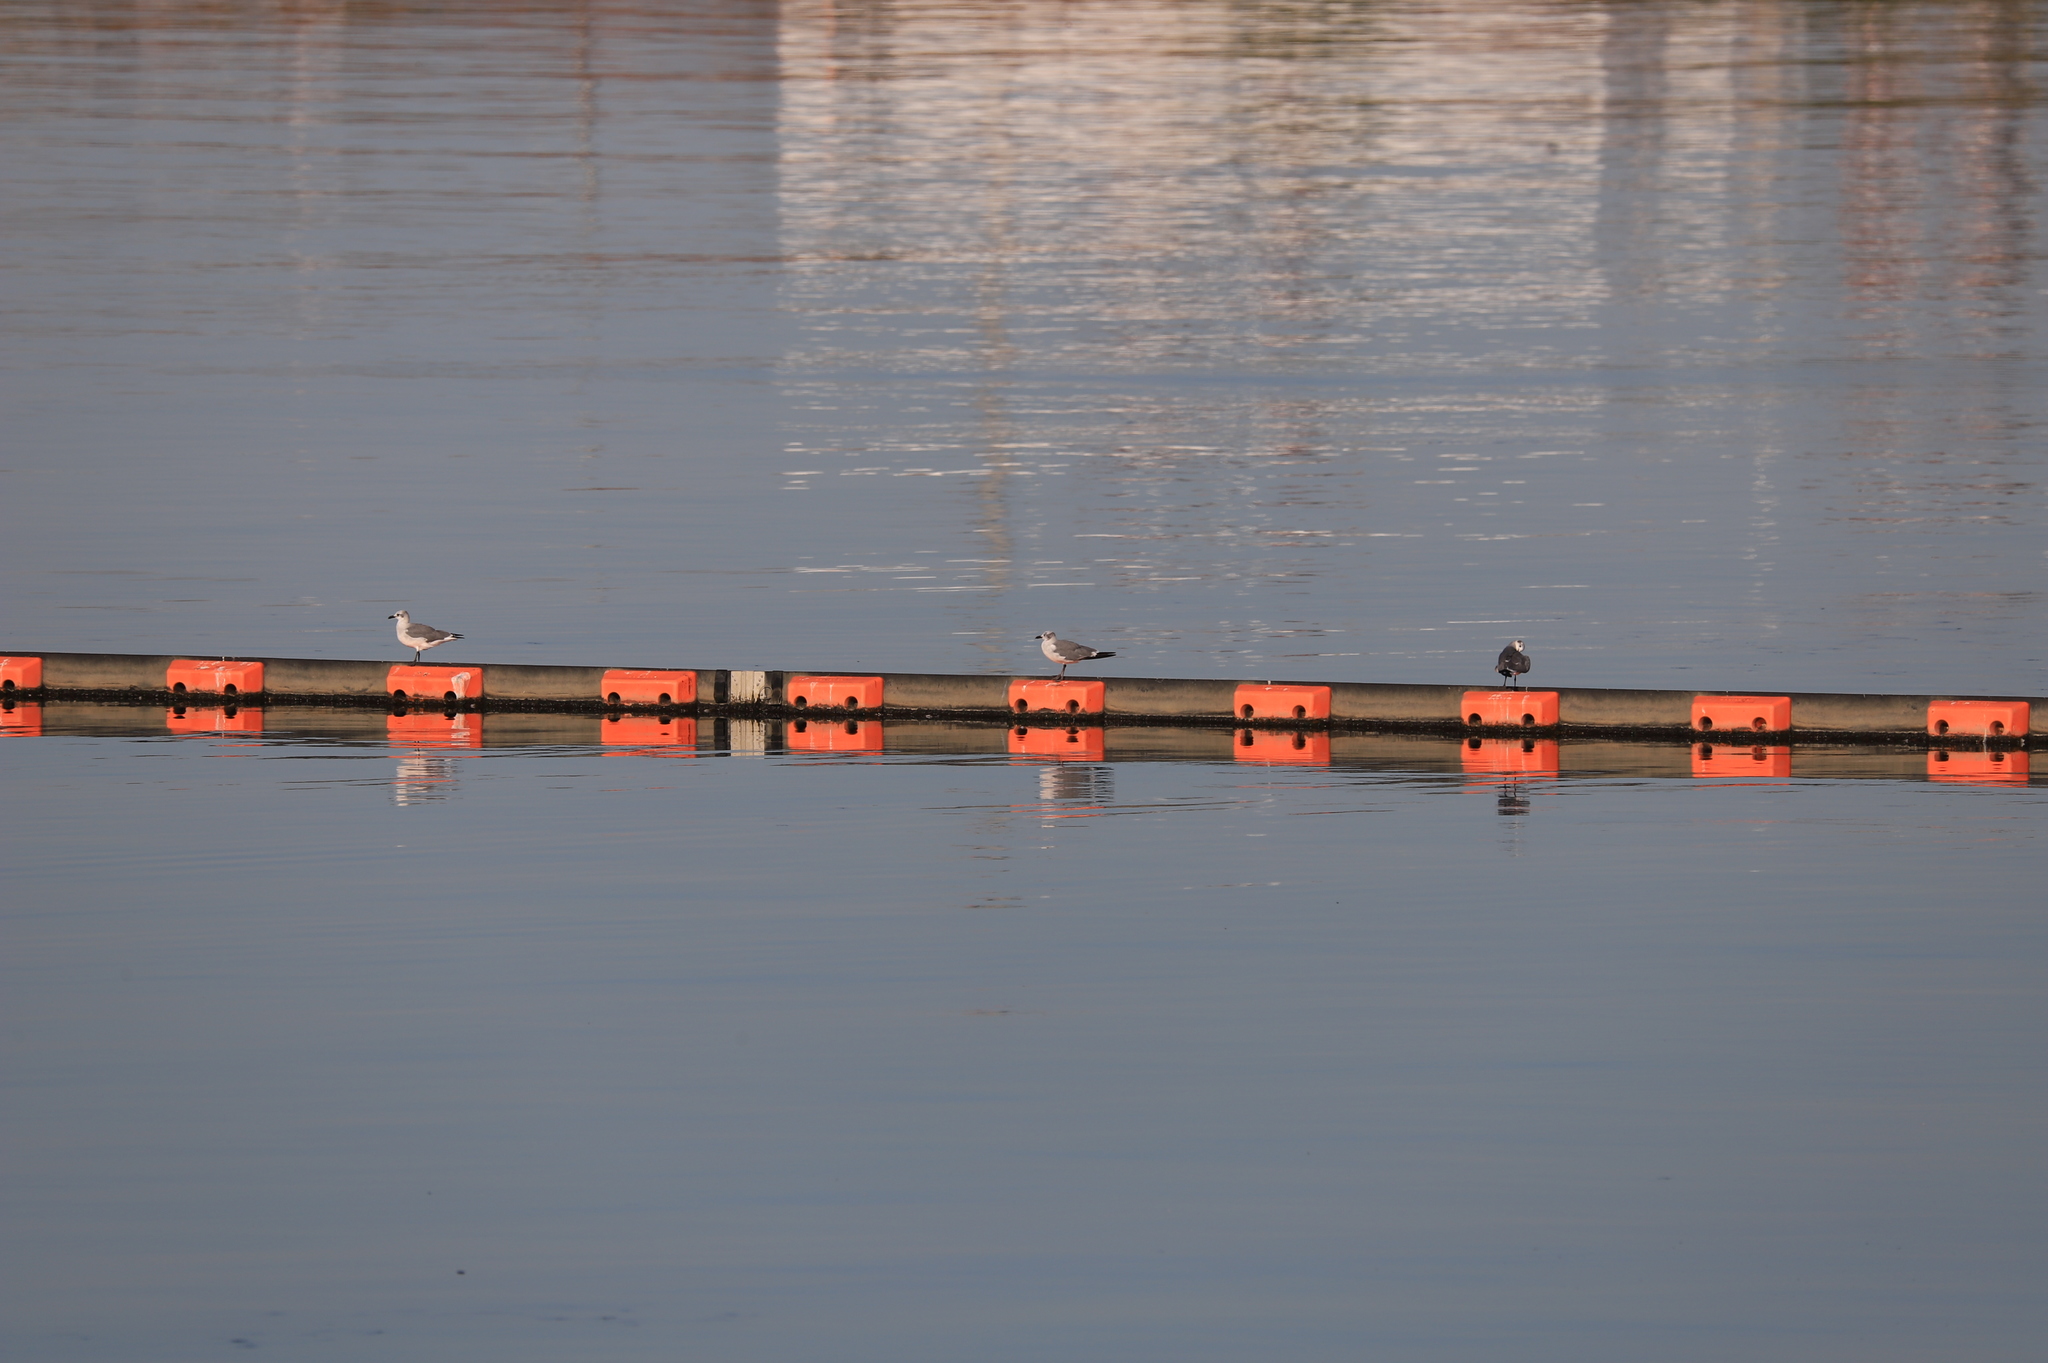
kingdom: Animalia
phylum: Chordata
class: Aves
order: Charadriiformes
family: Laridae
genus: Leucophaeus
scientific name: Leucophaeus atricilla
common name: Laughing gull
